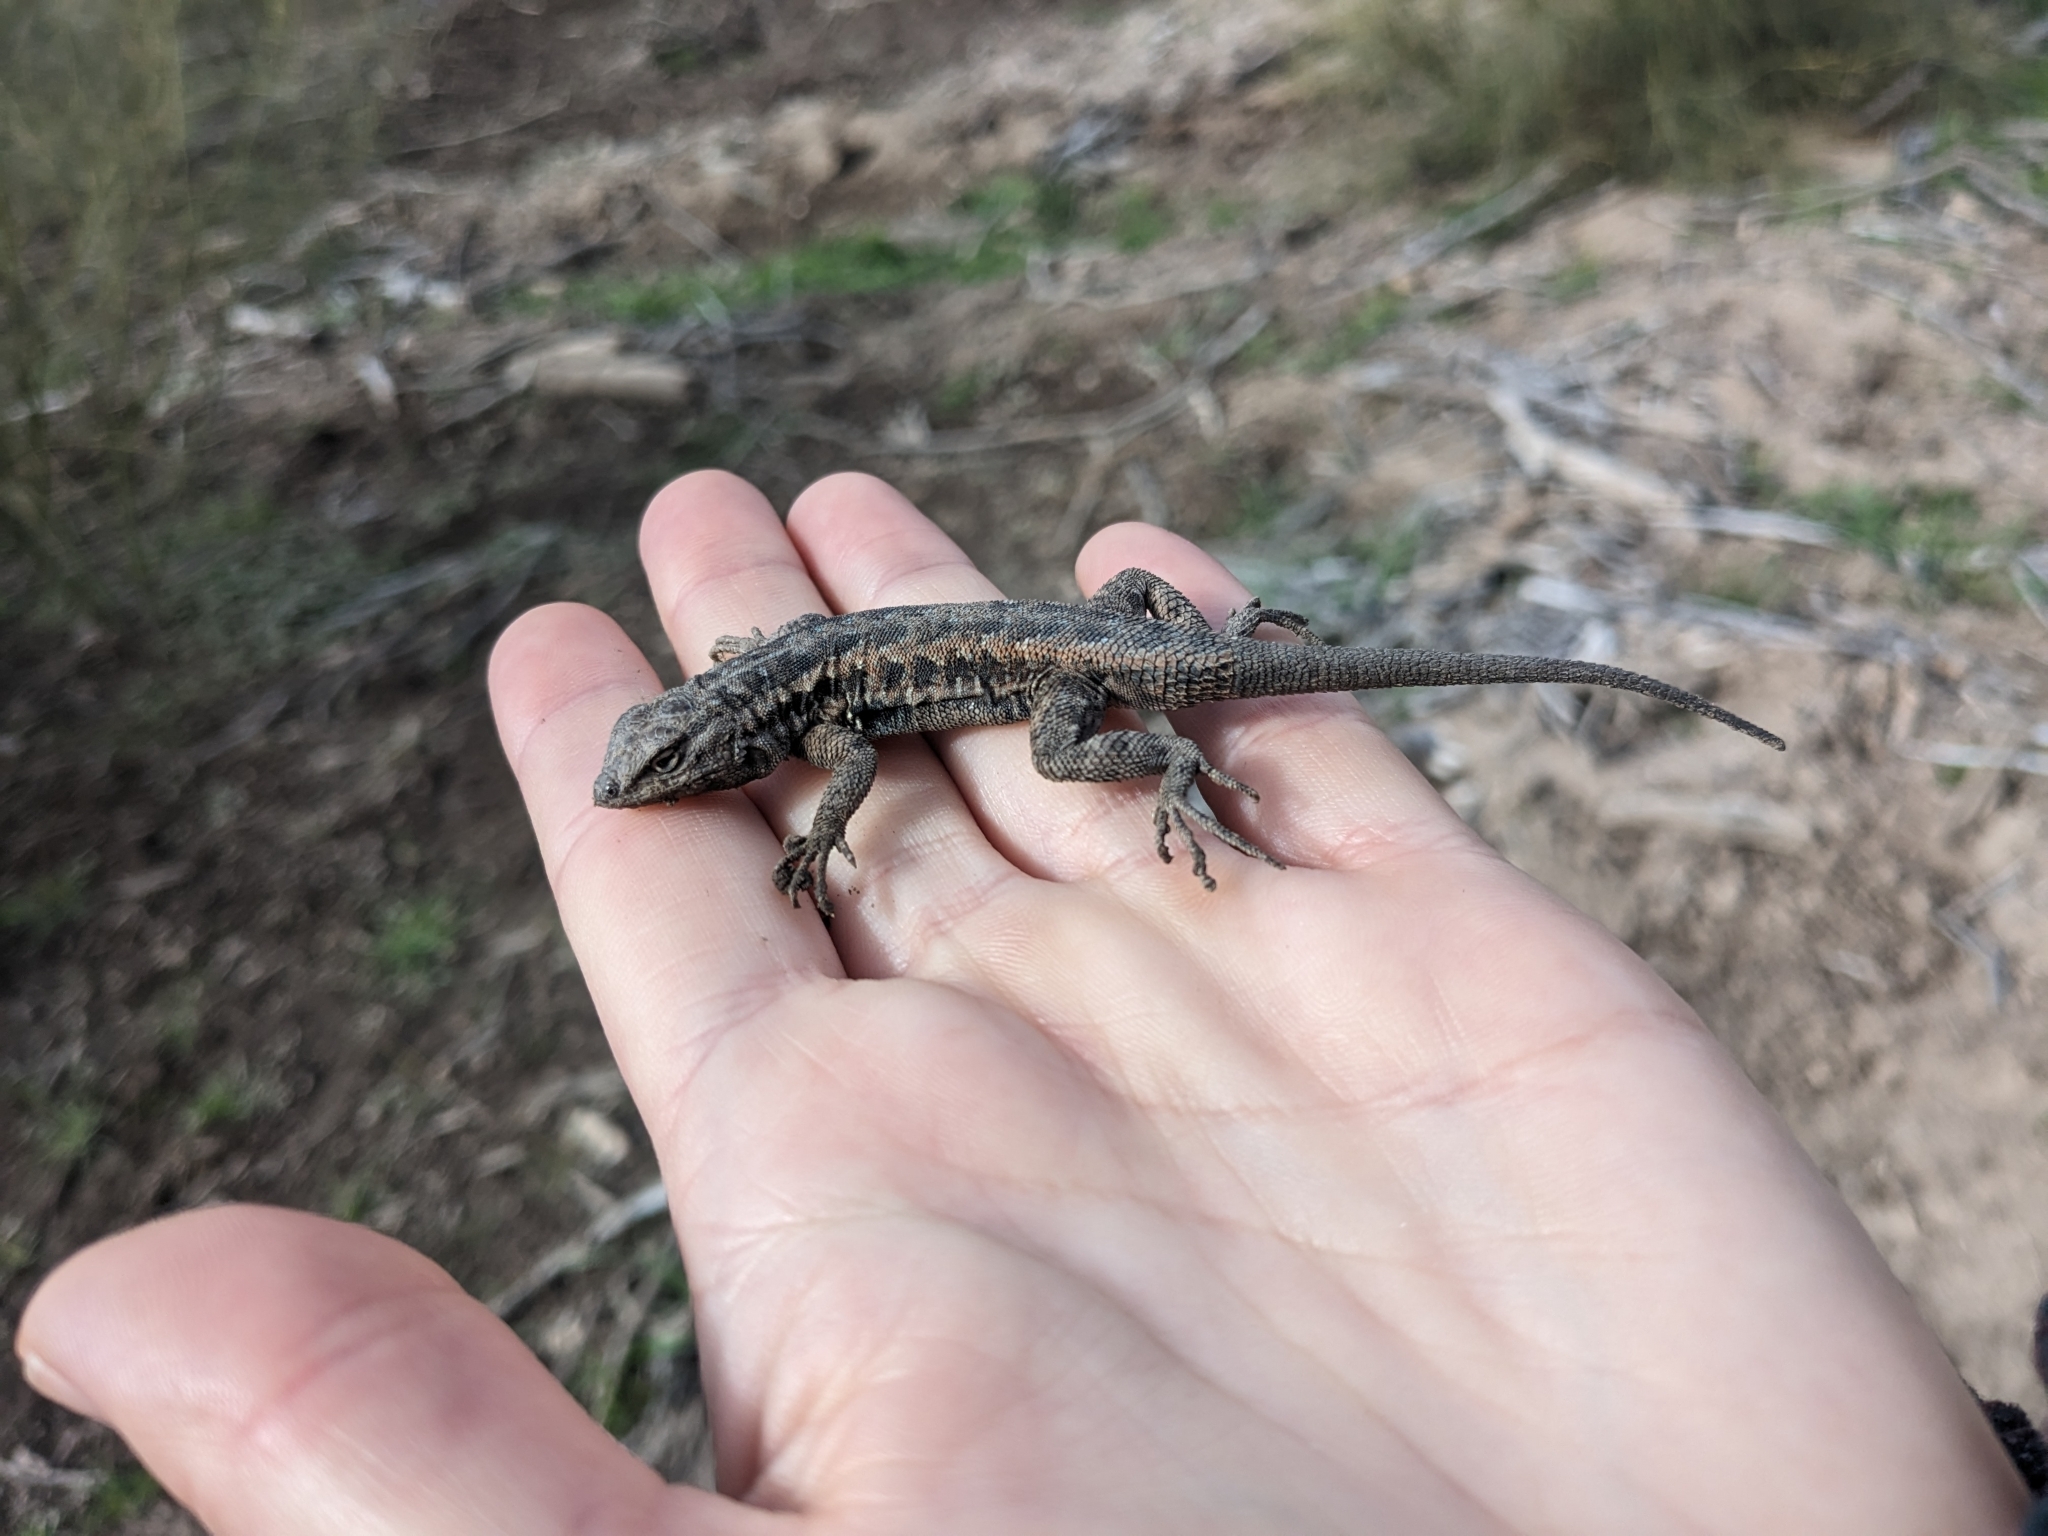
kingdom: Animalia
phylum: Chordata
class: Squamata
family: Phrynosomatidae
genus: Uta
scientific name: Uta stansburiana
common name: Side-blotched lizard
